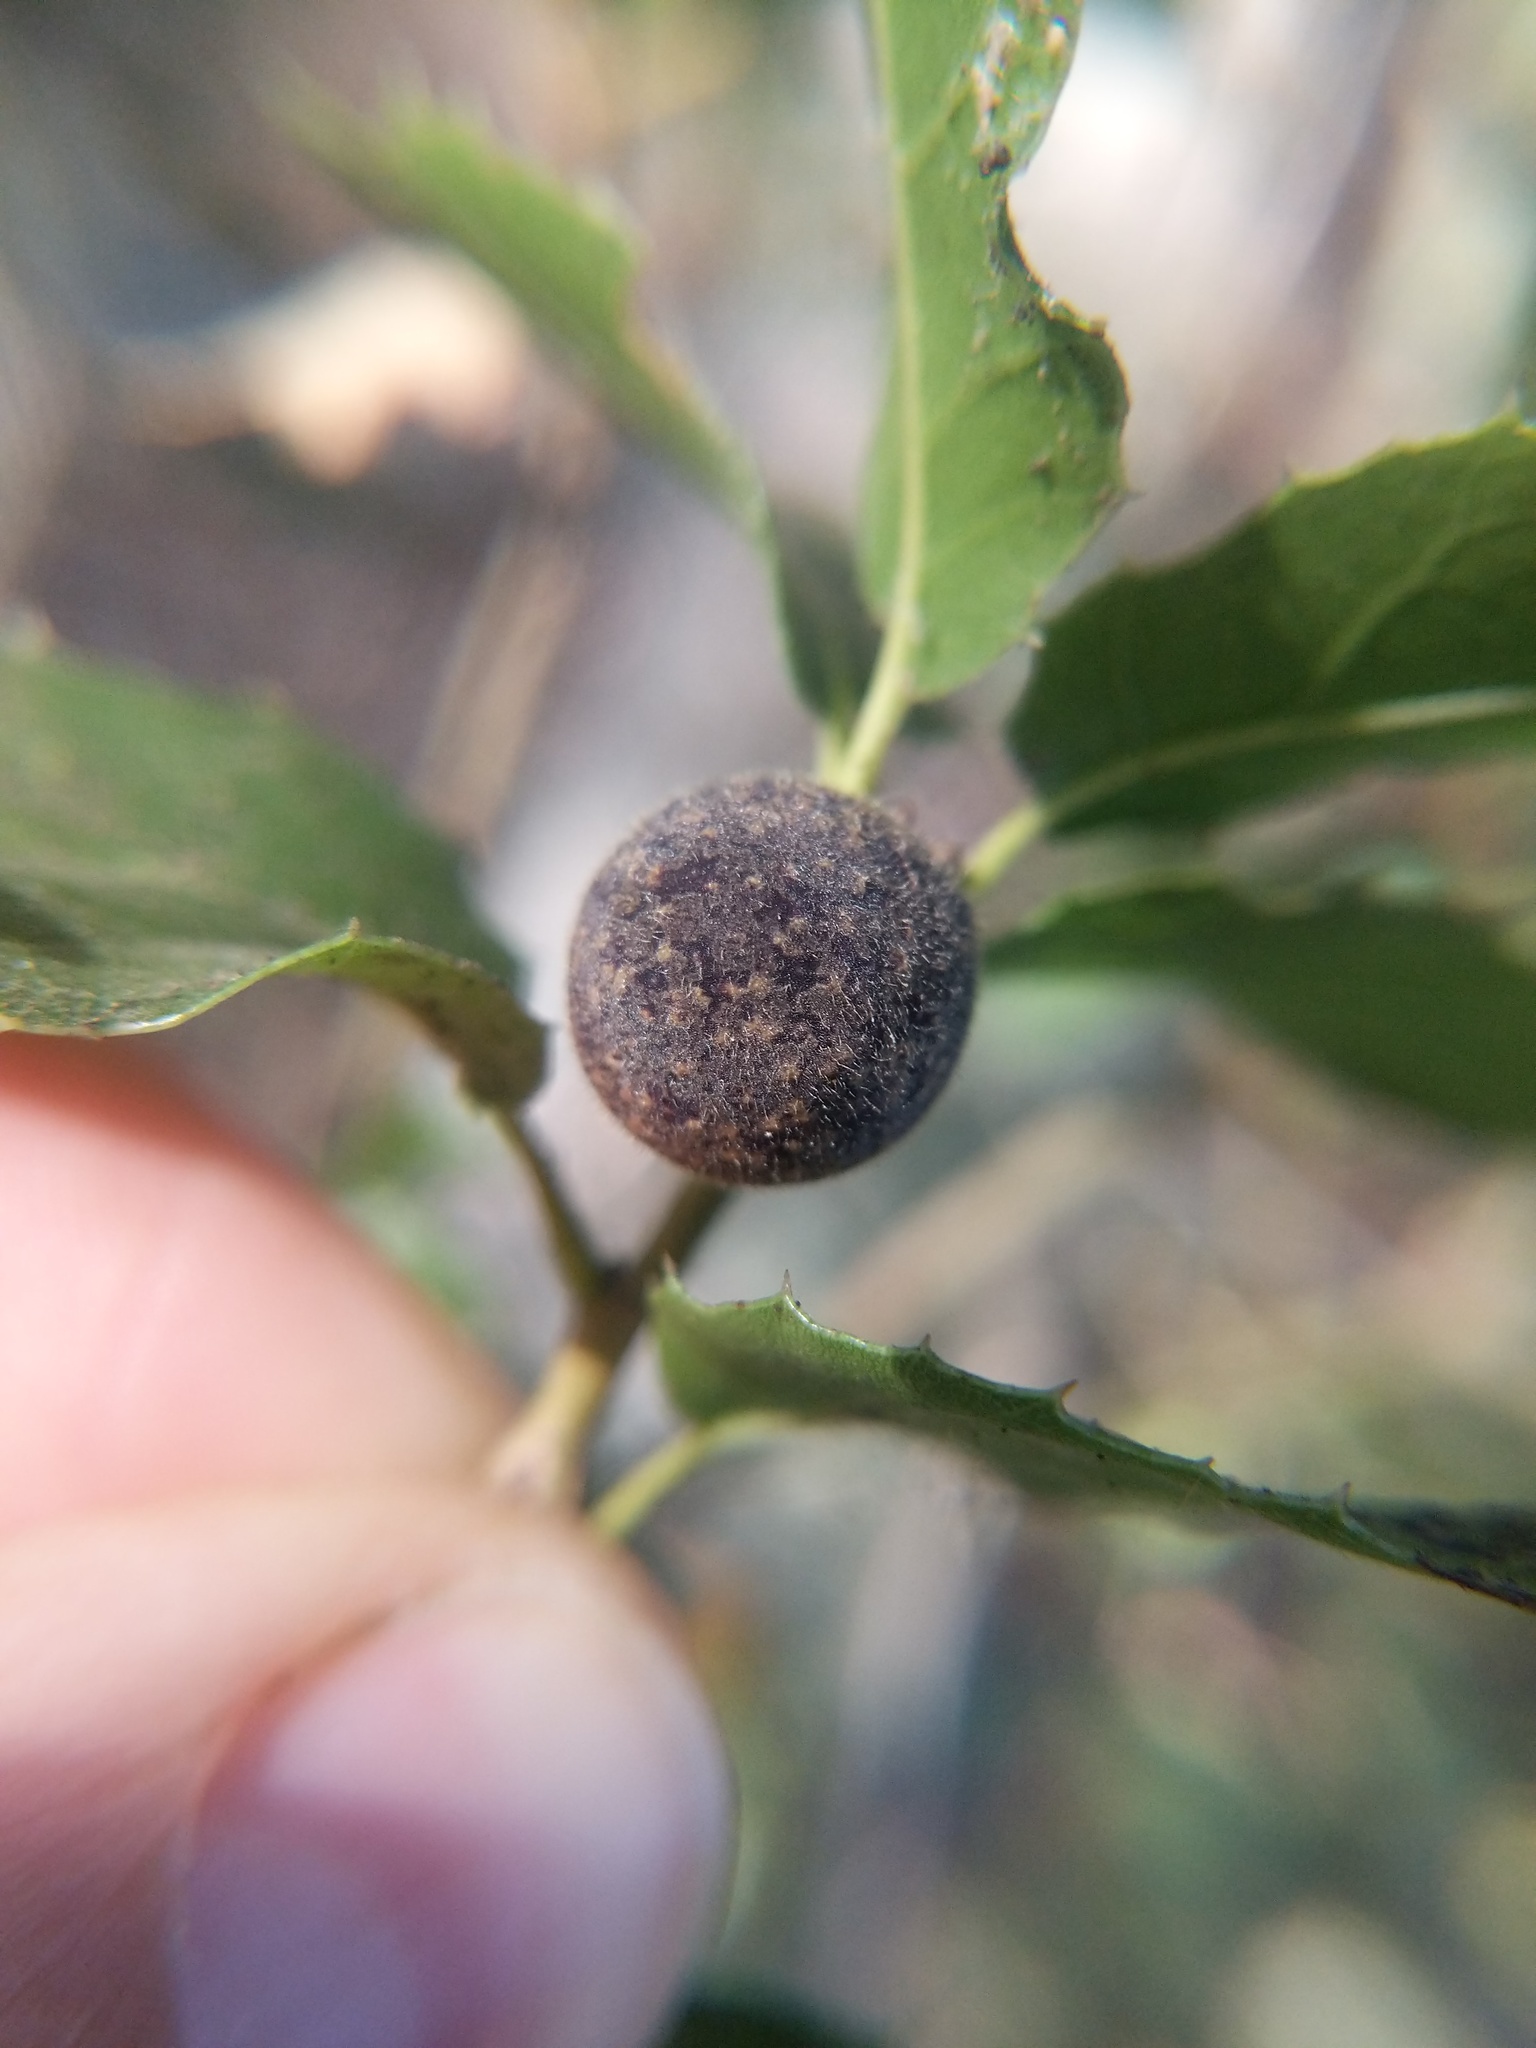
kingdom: Animalia
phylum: Arthropoda
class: Insecta
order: Hymenoptera
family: Cynipidae
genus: Callirhytis
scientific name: Callirhytis
